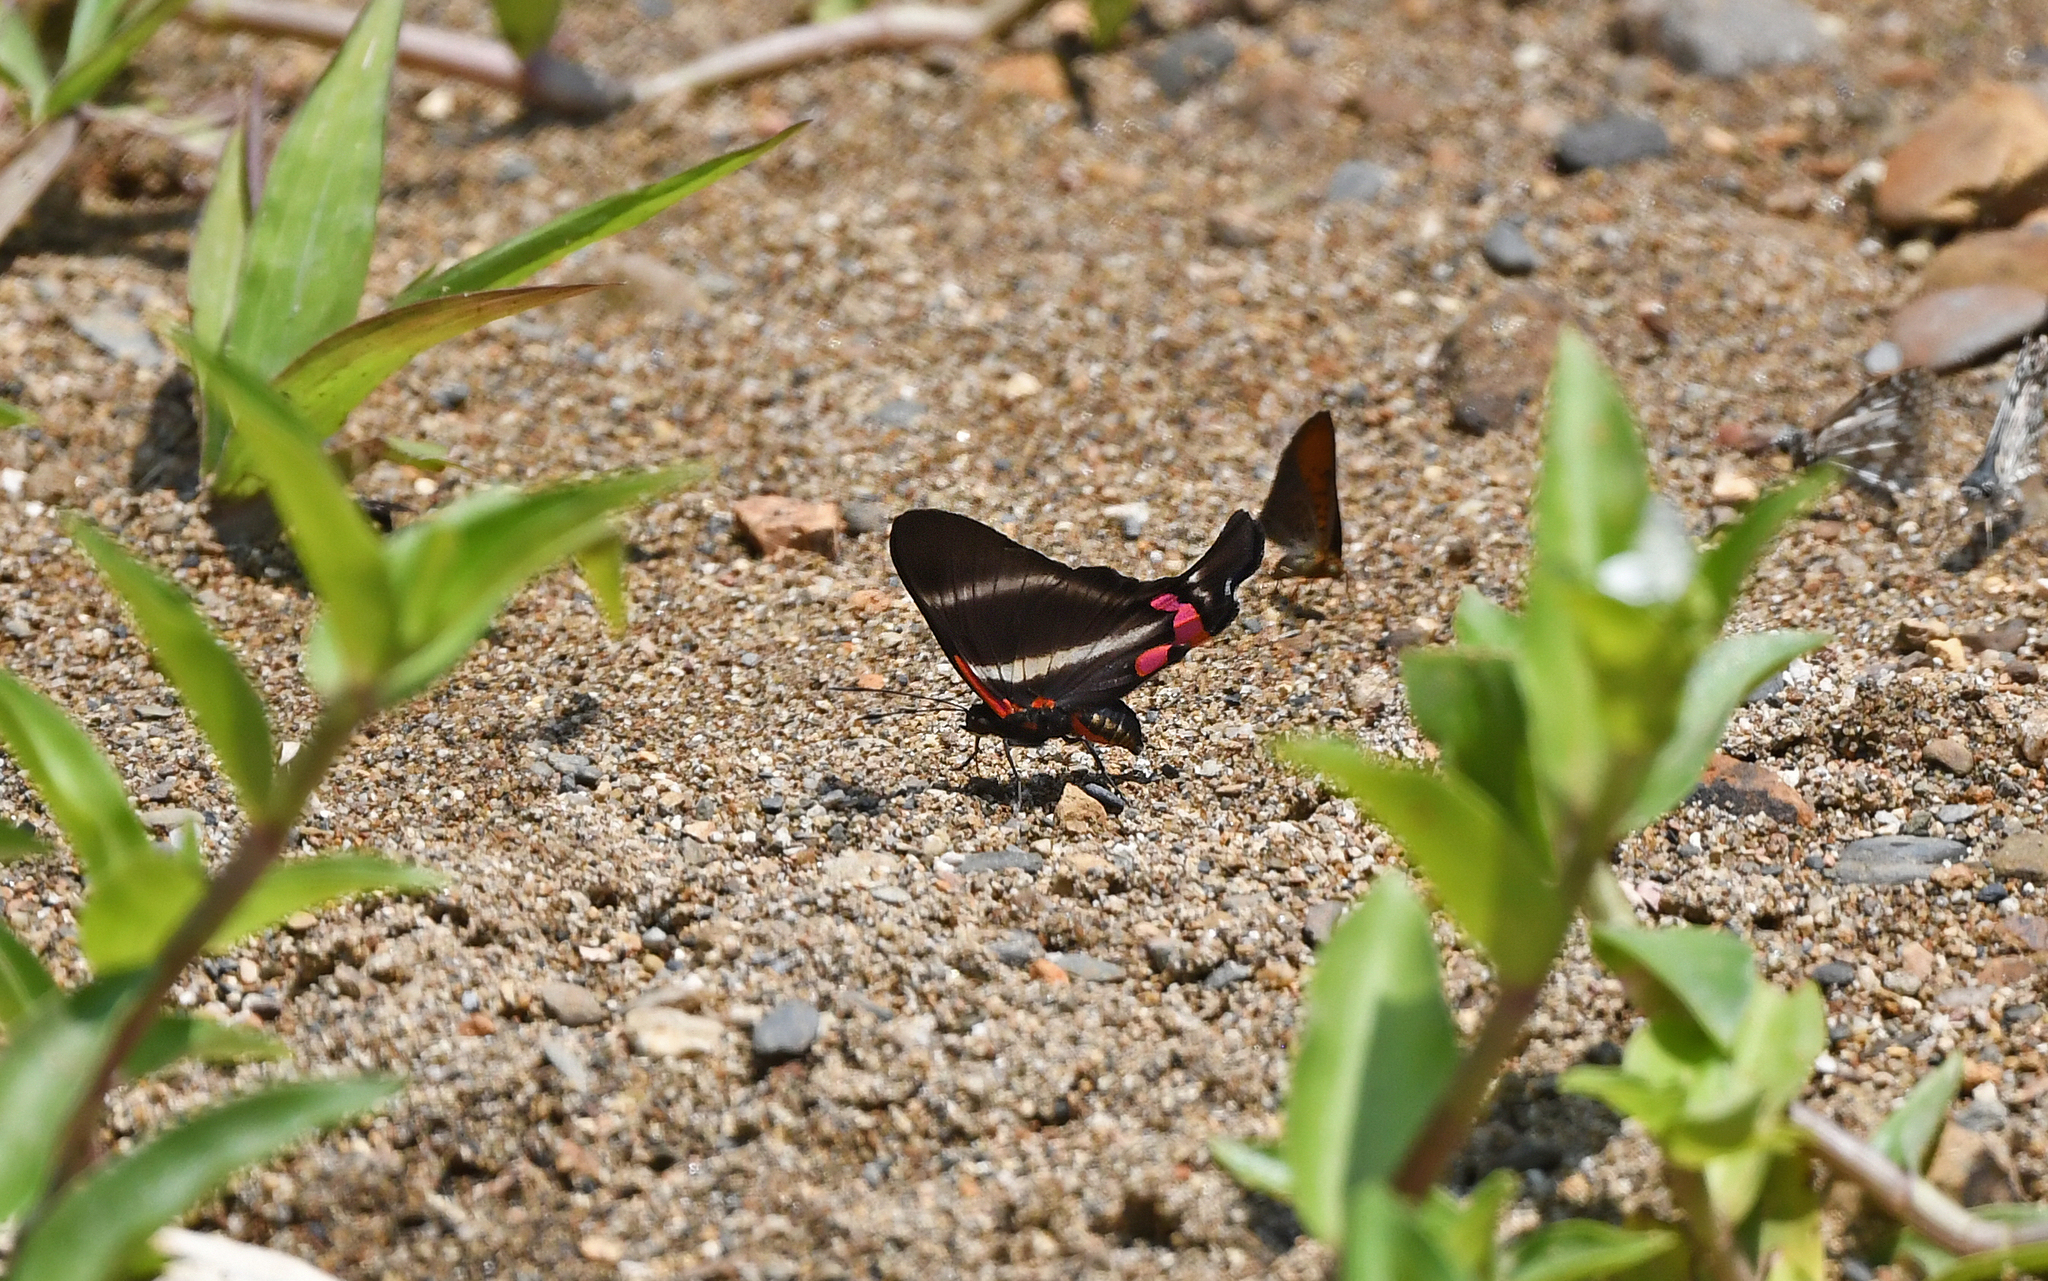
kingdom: Animalia
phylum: Arthropoda
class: Insecta
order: Lepidoptera
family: Riodinidae
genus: Rhetus
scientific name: Rhetus periander
